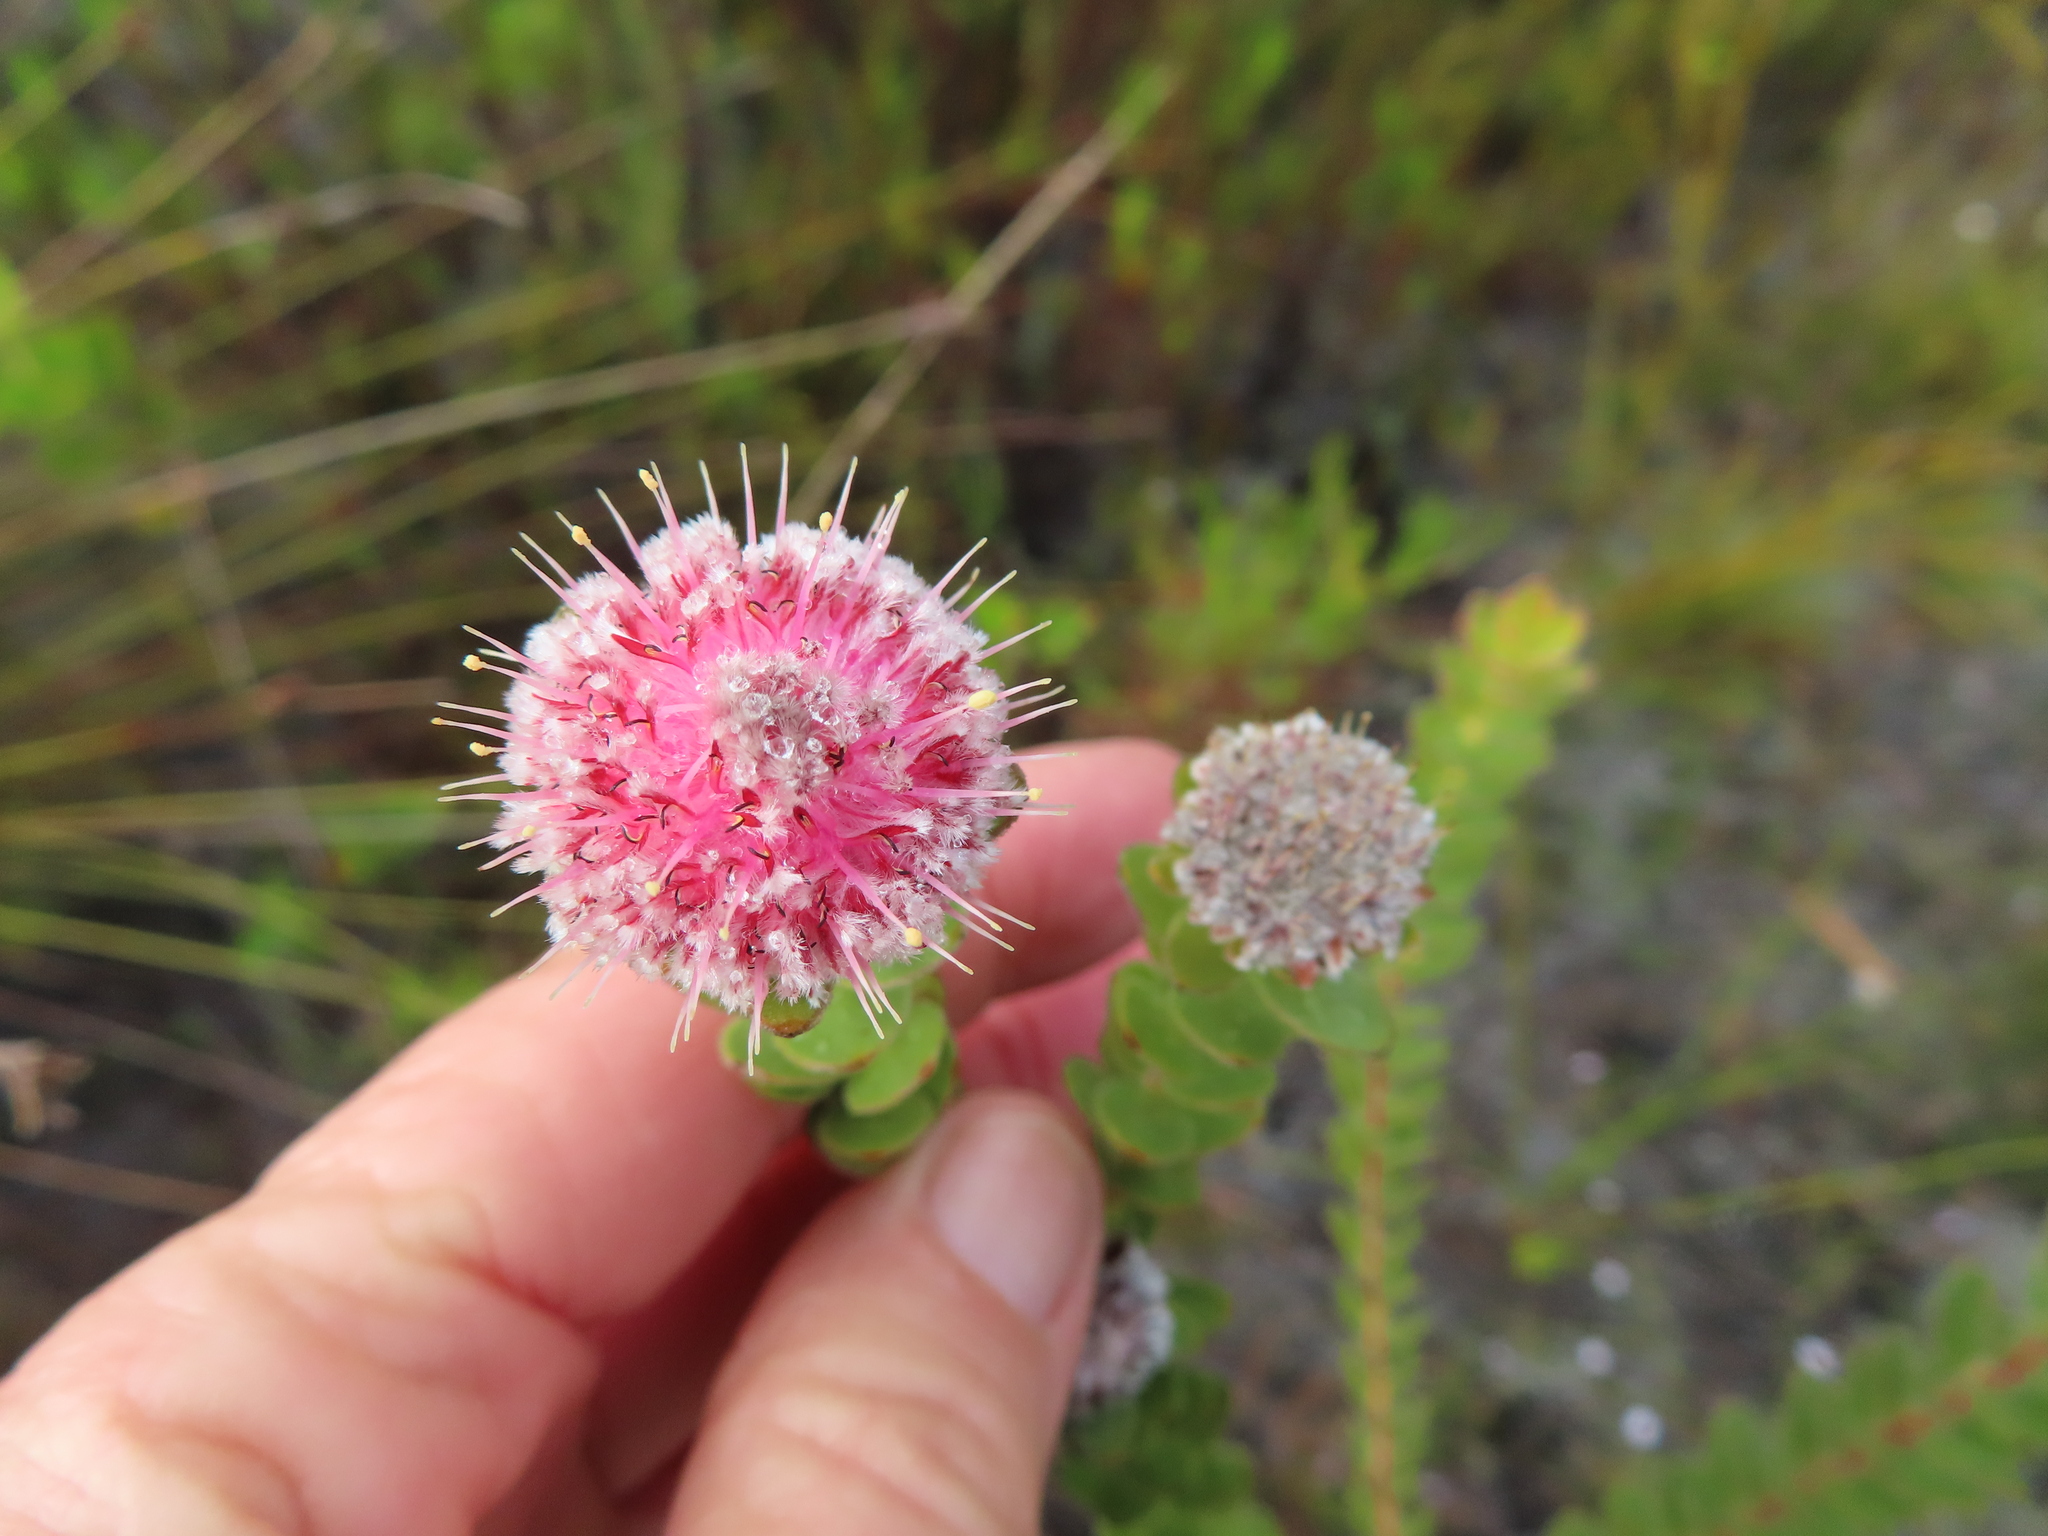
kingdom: Plantae
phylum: Tracheophyta
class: Magnoliopsida
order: Proteales
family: Proteaceae
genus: Diastella
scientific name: Diastella thymelaeoides
